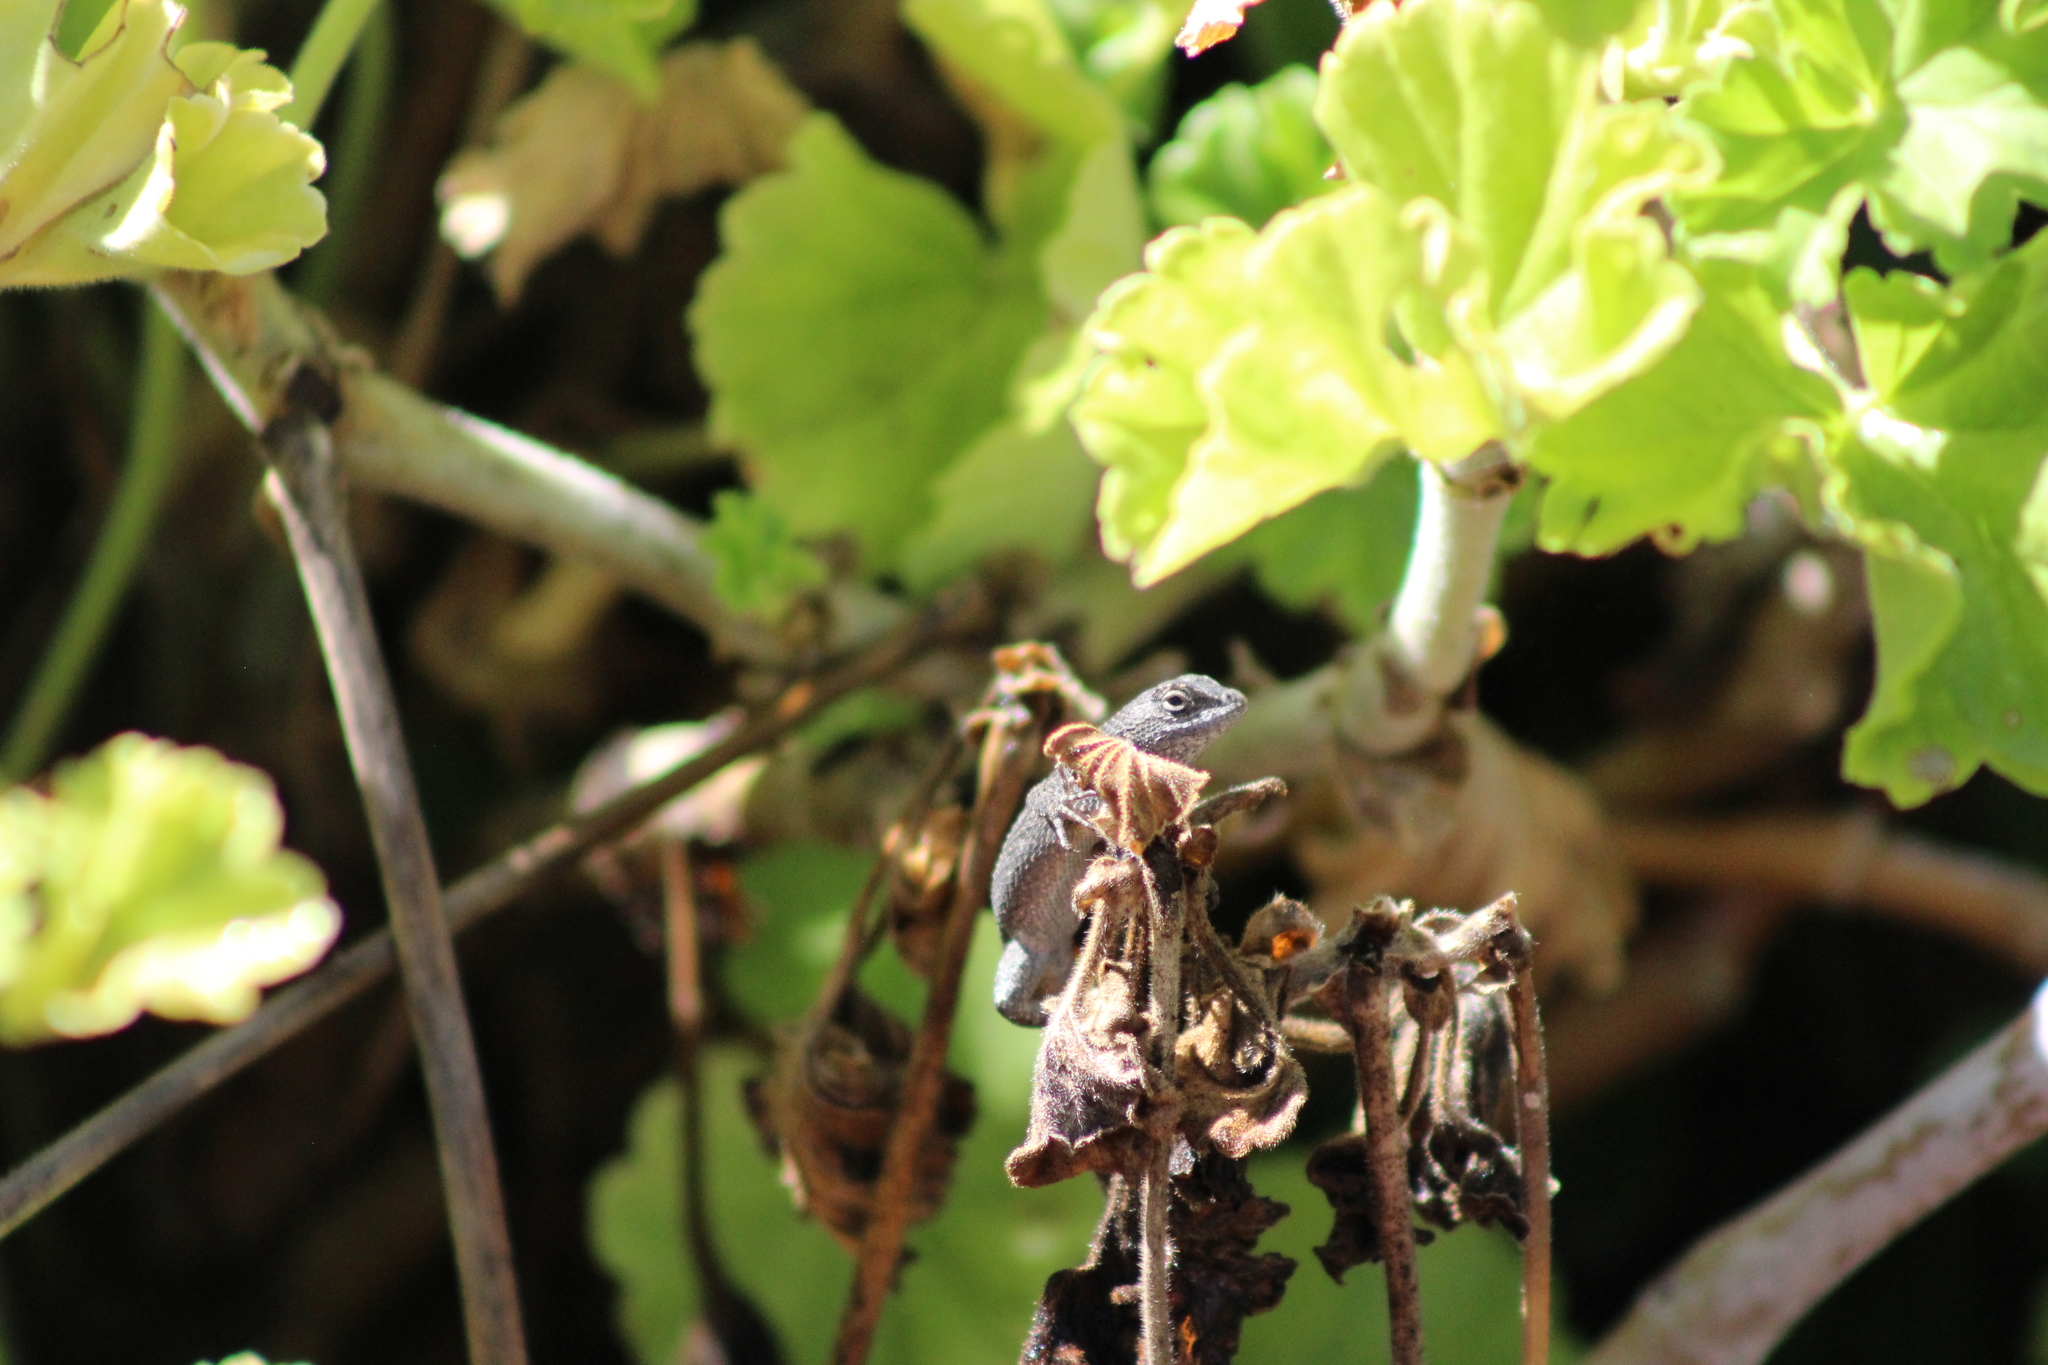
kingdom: Animalia
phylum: Chordata
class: Squamata
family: Phrynosomatidae
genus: Sceloporus
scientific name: Sceloporus occidentalis
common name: Western fence lizard
